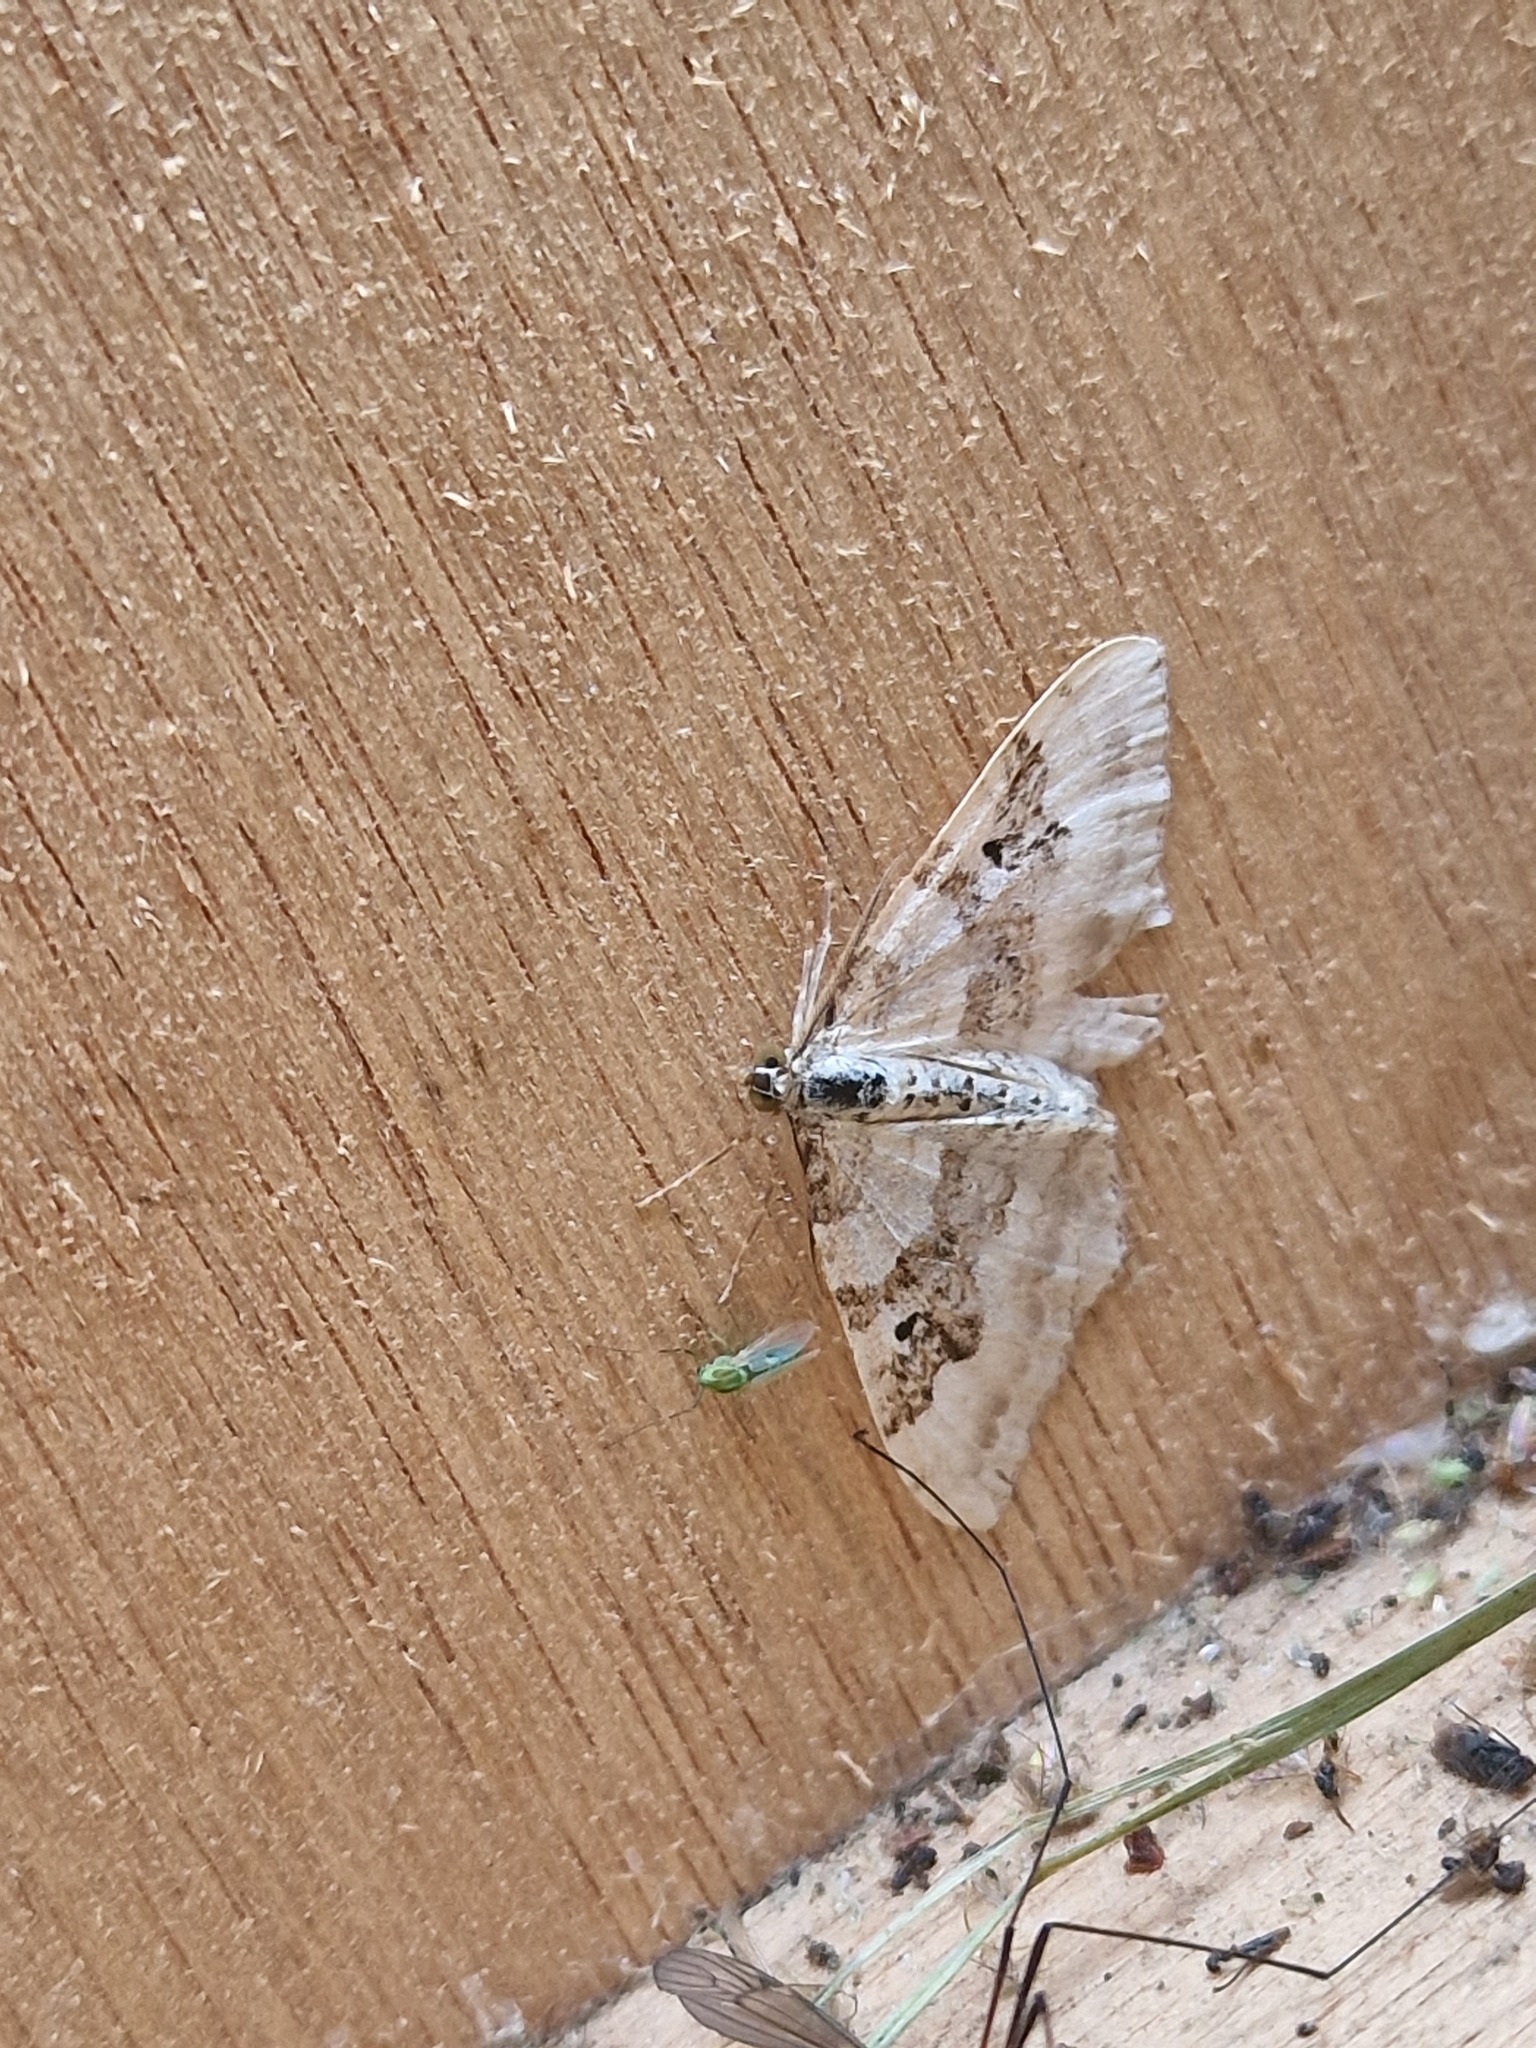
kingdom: Animalia
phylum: Arthropoda
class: Insecta
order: Lepidoptera
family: Geometridae
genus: Xanthorhoe
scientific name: Xanthorhoe montanata
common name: Silver-ground carpet
